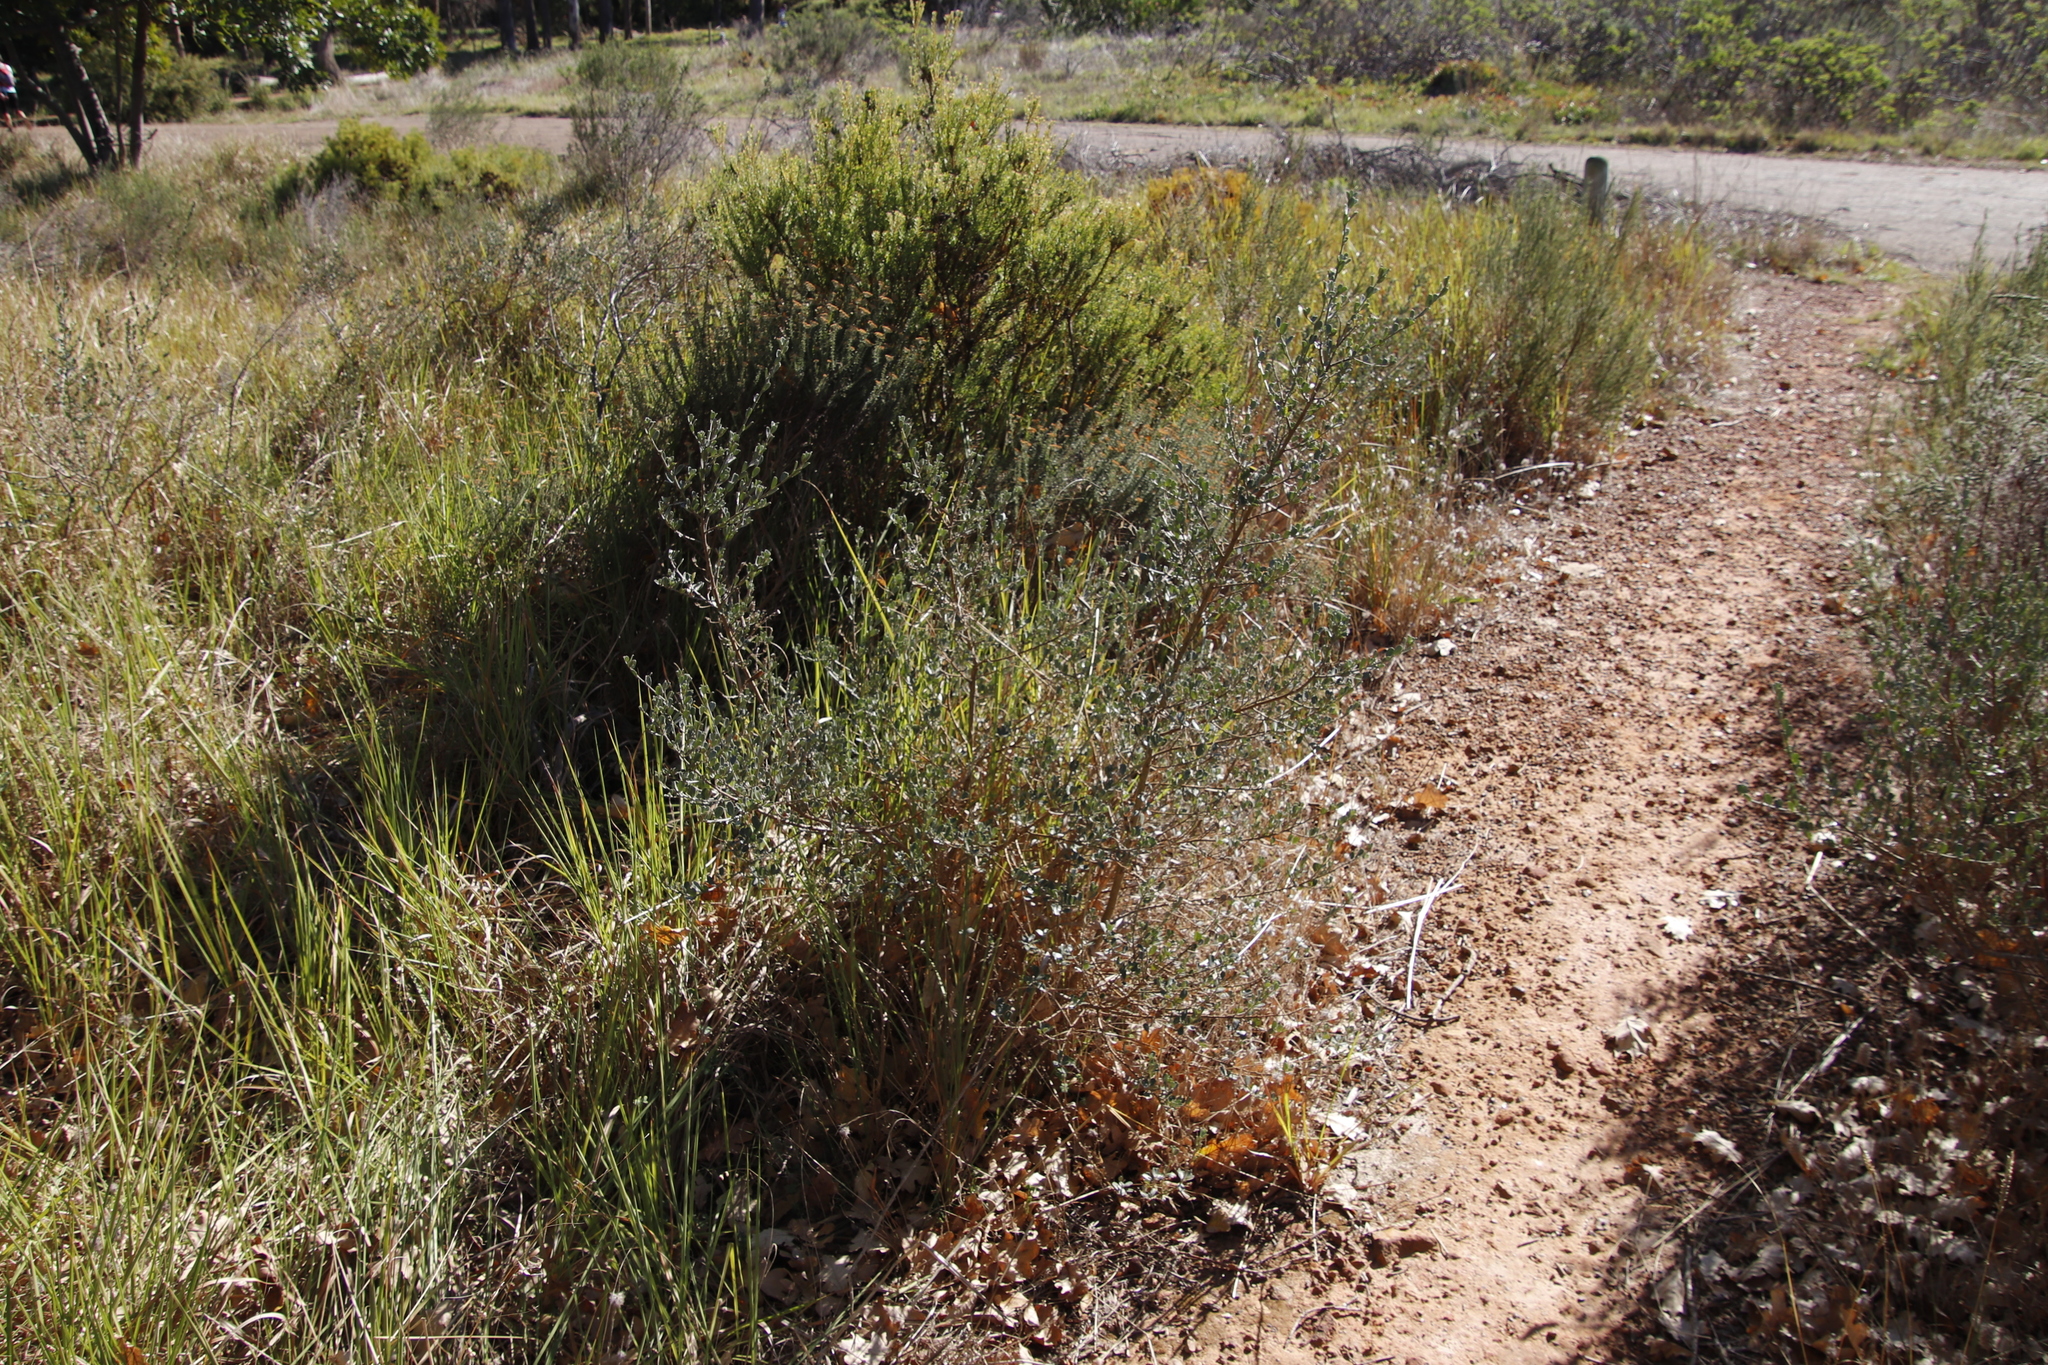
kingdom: Plantae
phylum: Tracheophyta
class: Magnoliopsida
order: Fabales
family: Fabaceae
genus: Podalyria
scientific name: Podalyria myrtillifolia
